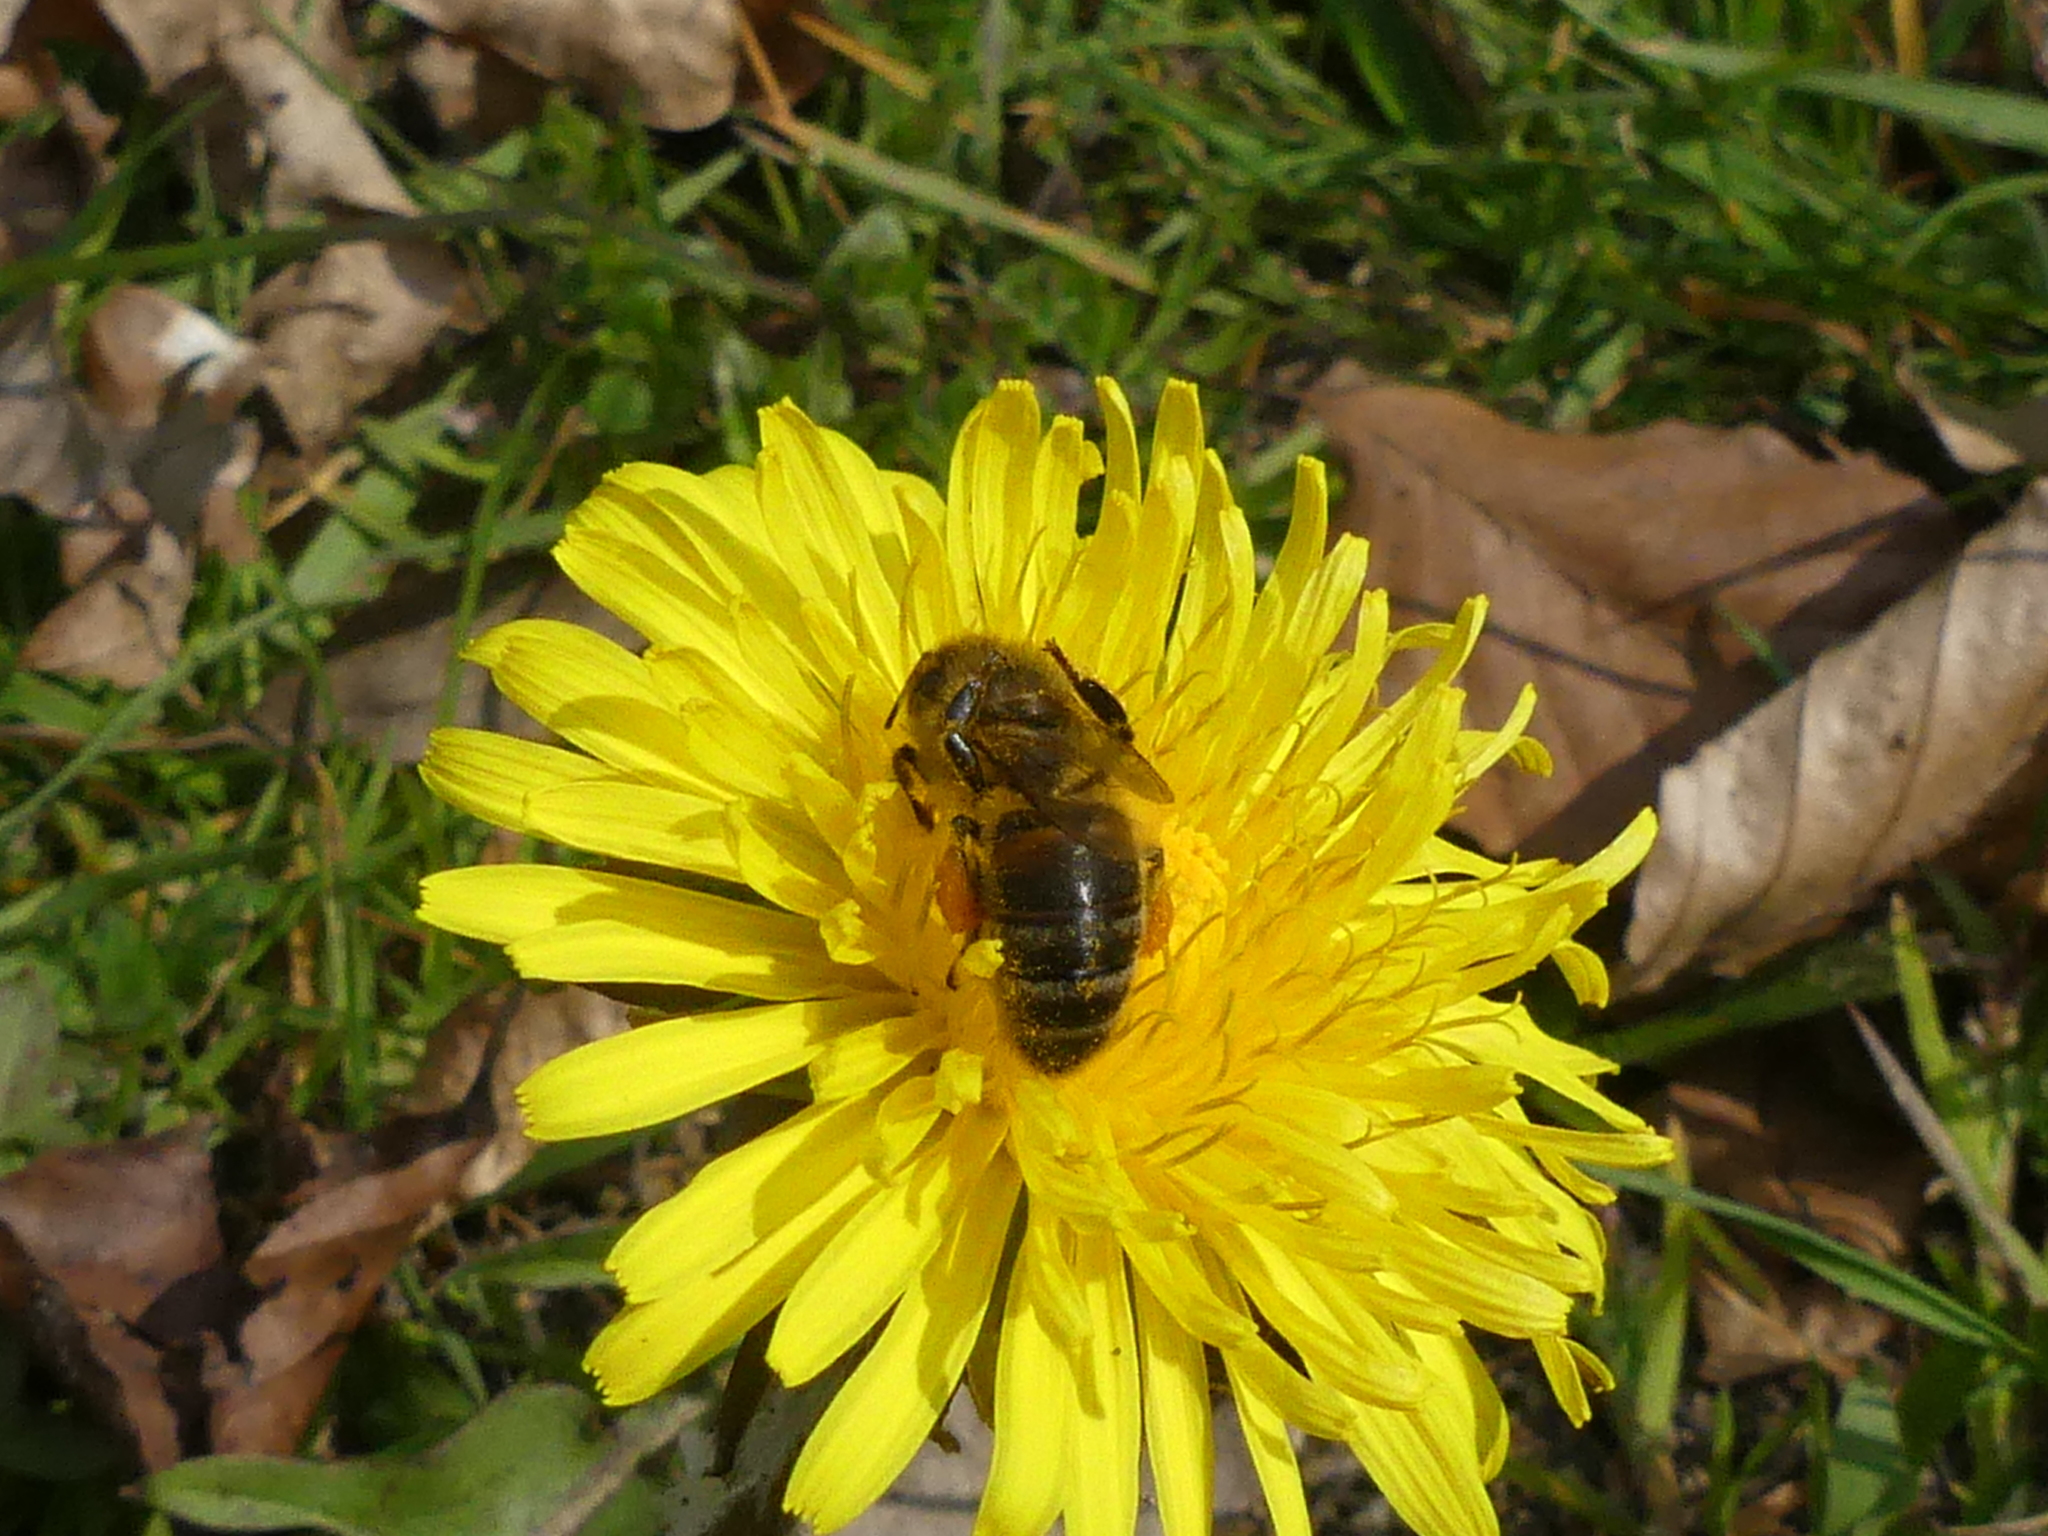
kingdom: Animalia
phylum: Arthropoda
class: Insecta
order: Hymenoptera
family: Apidae
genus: Apis
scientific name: Apis mellifera
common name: Honey bee
